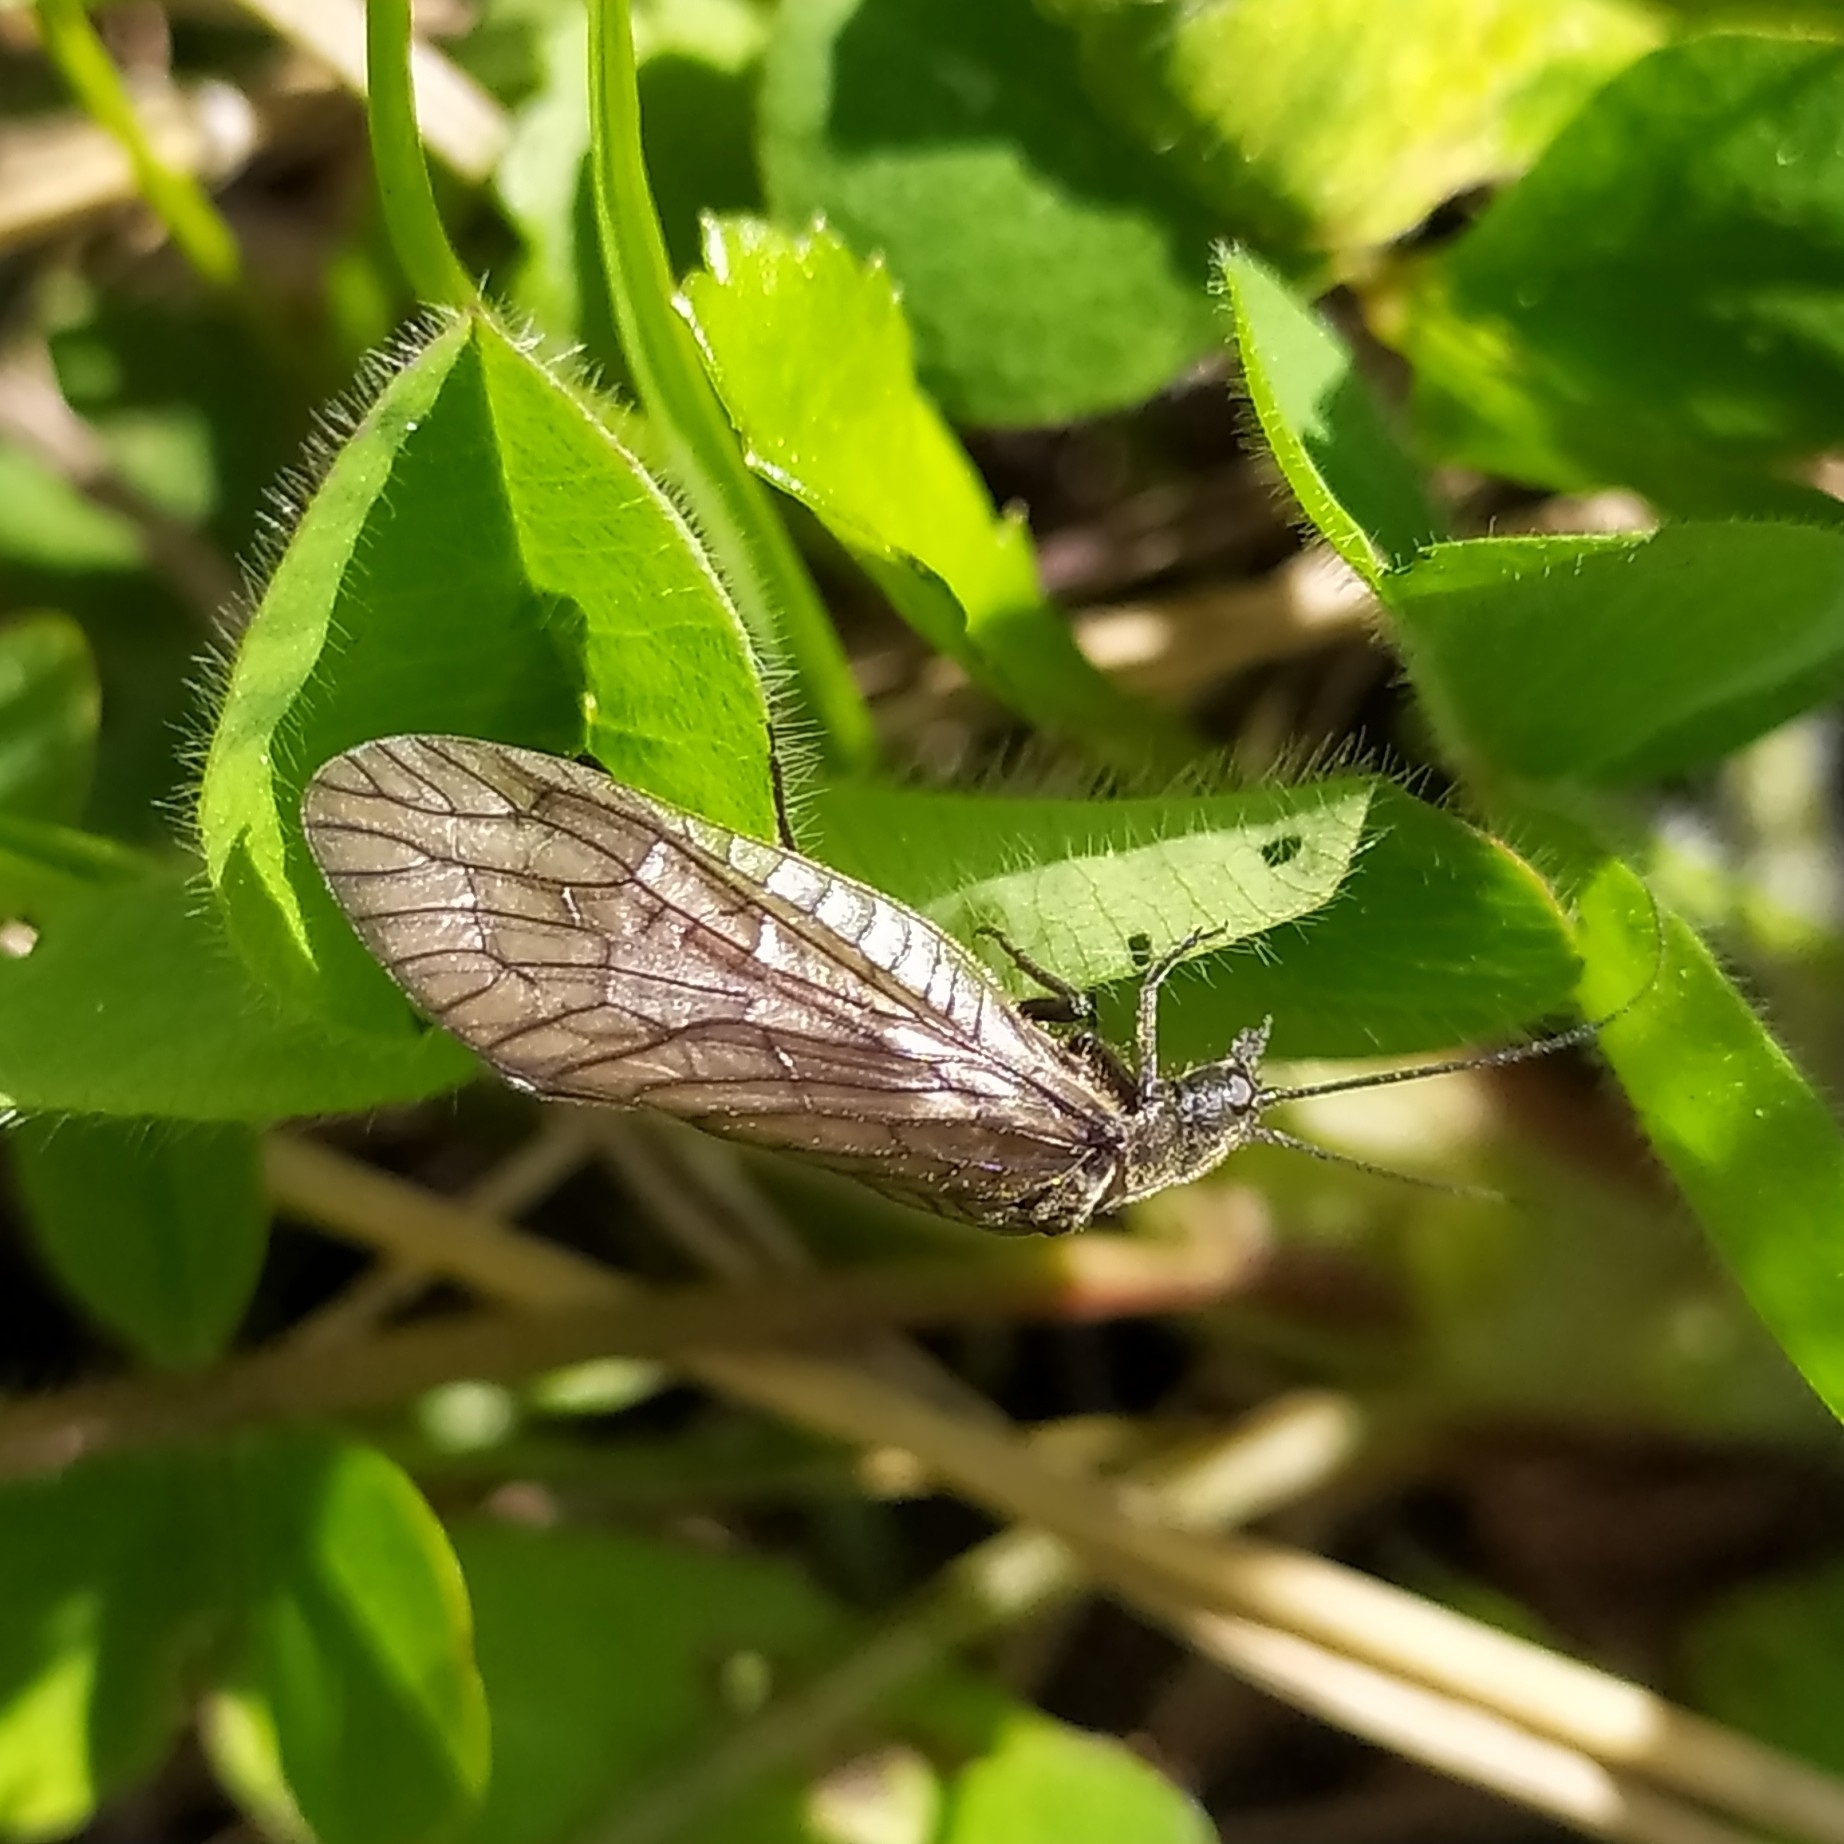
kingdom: Animalia
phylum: Arthropoda
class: Insecta
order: Megaloptera
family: Sialidae
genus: Sialis
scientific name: Sialis
